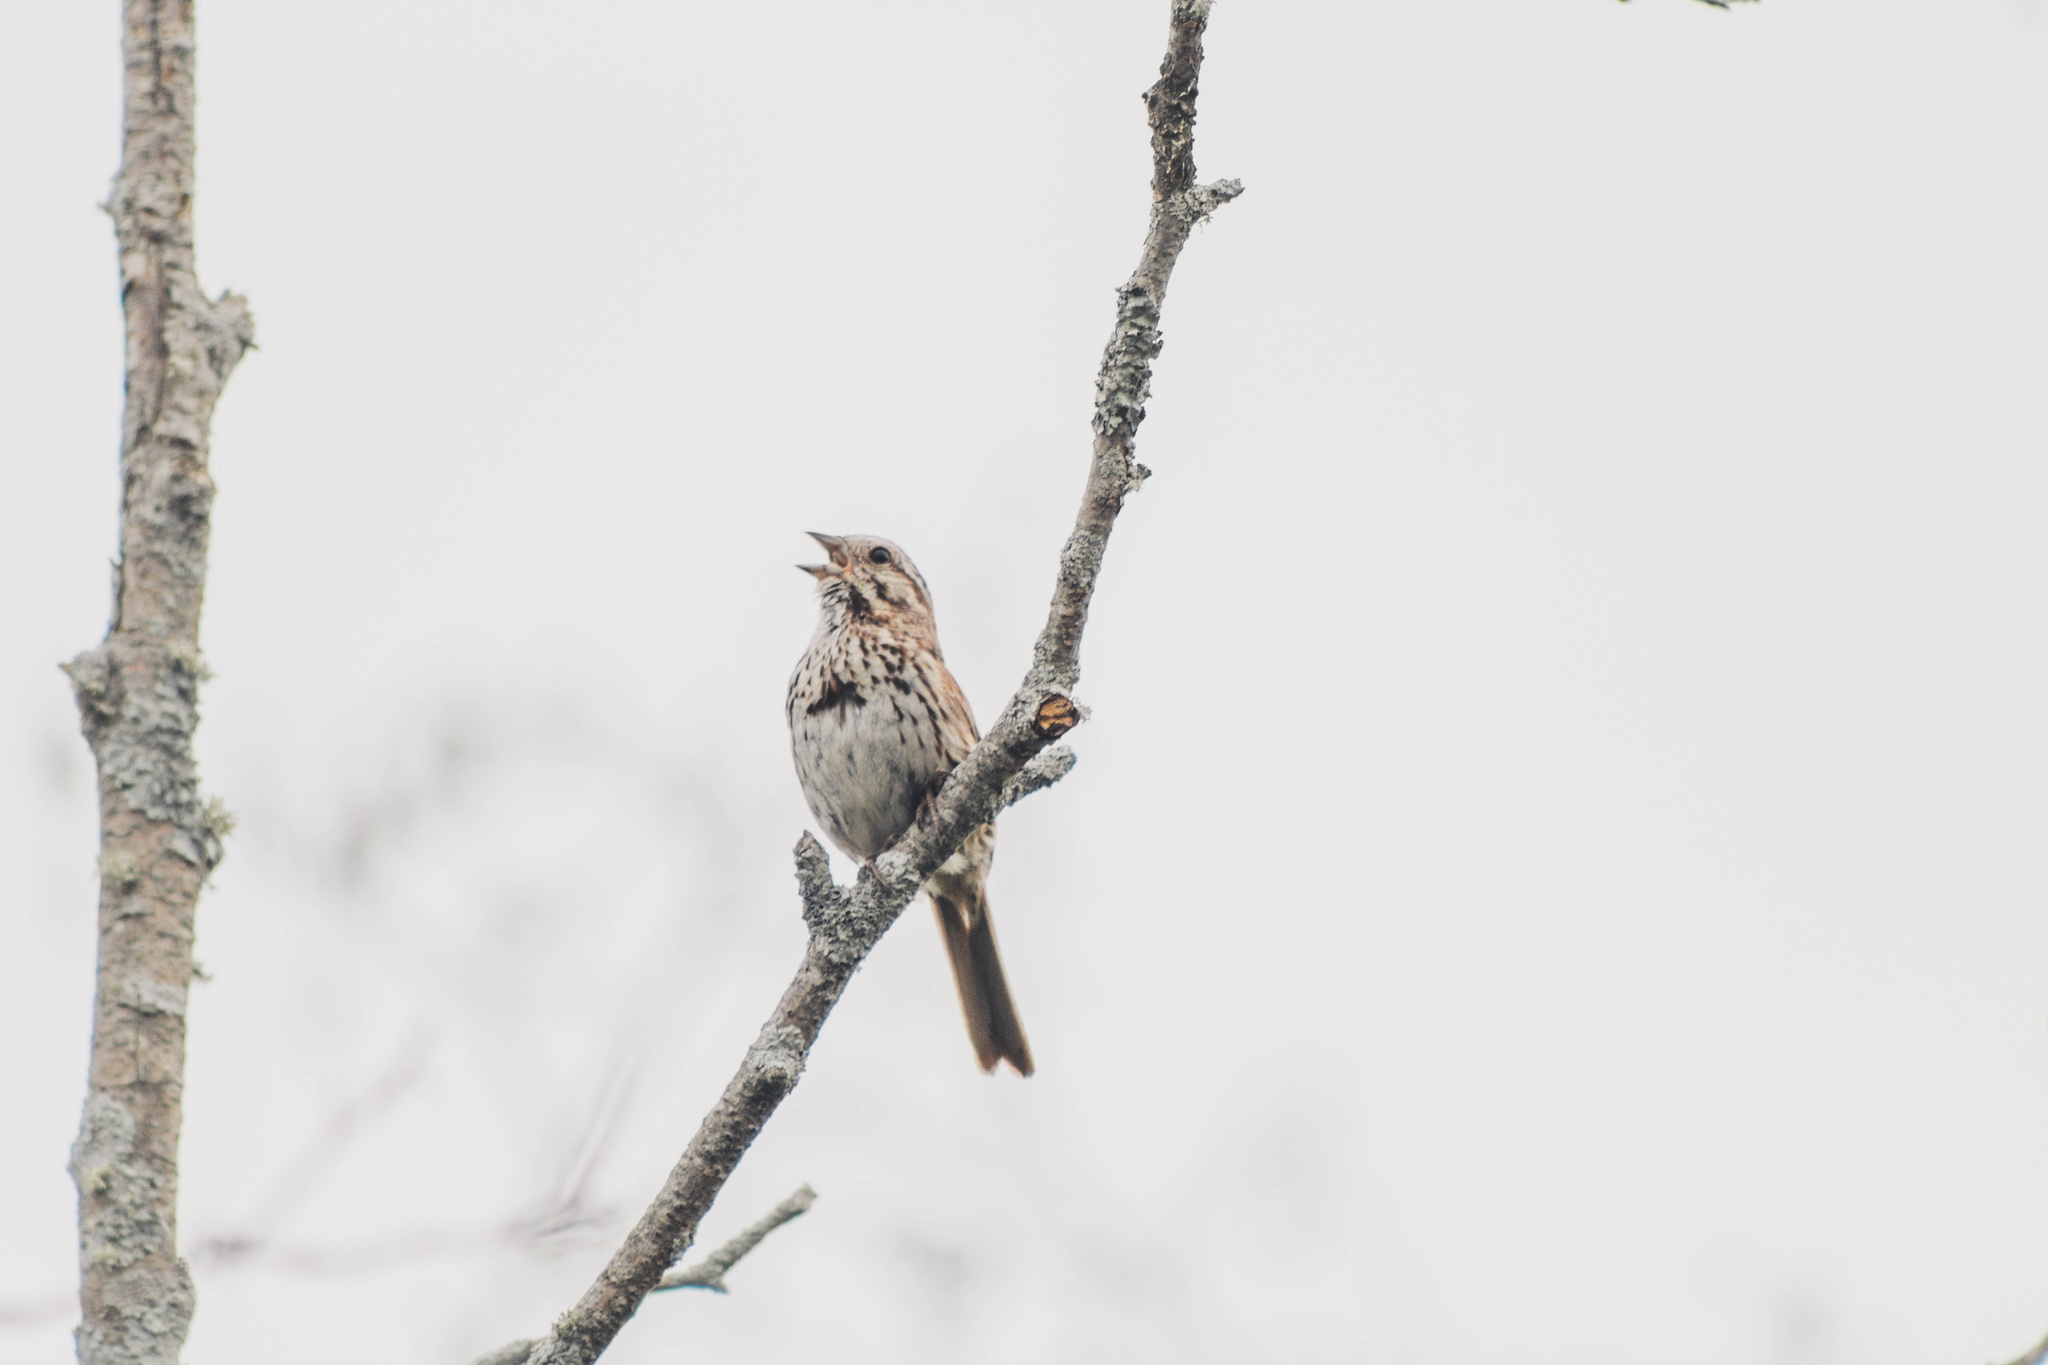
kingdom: Animalia
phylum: Chordata
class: Aves
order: Passeriformes
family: Passerellidae
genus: Melospiza
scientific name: Melospiza melodia
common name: Song sparrow
